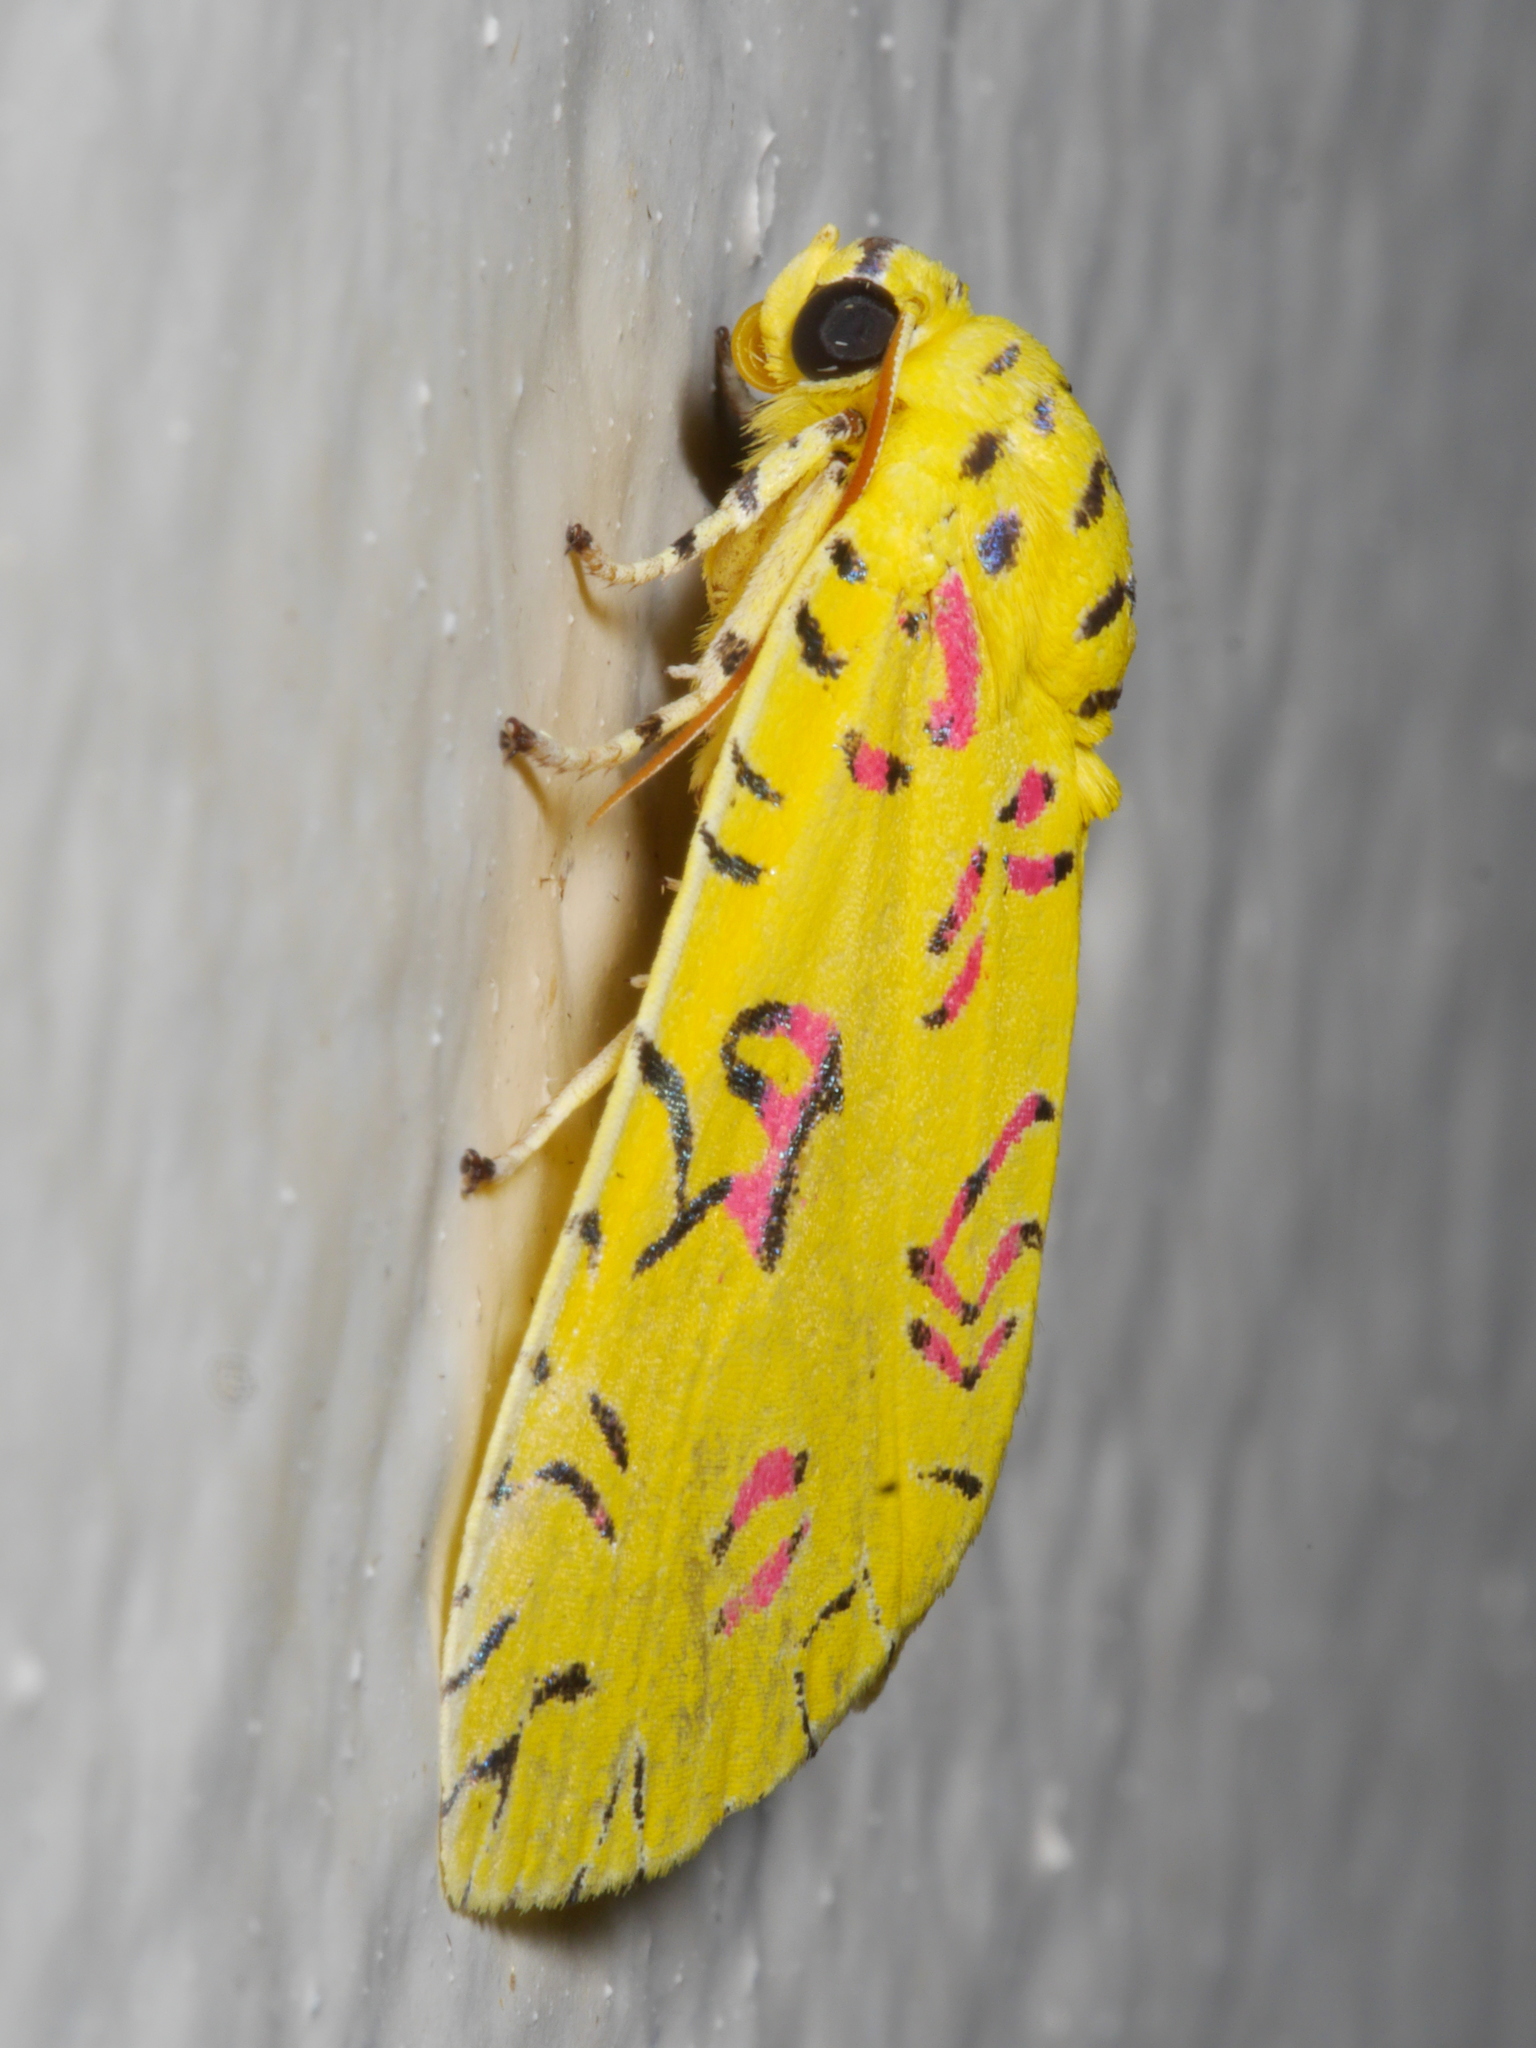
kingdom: Animalia
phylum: Arthropoda
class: Insecta
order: Lepidoptera
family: Noctuidae
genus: Mazuca
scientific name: Mazuca dulcis
